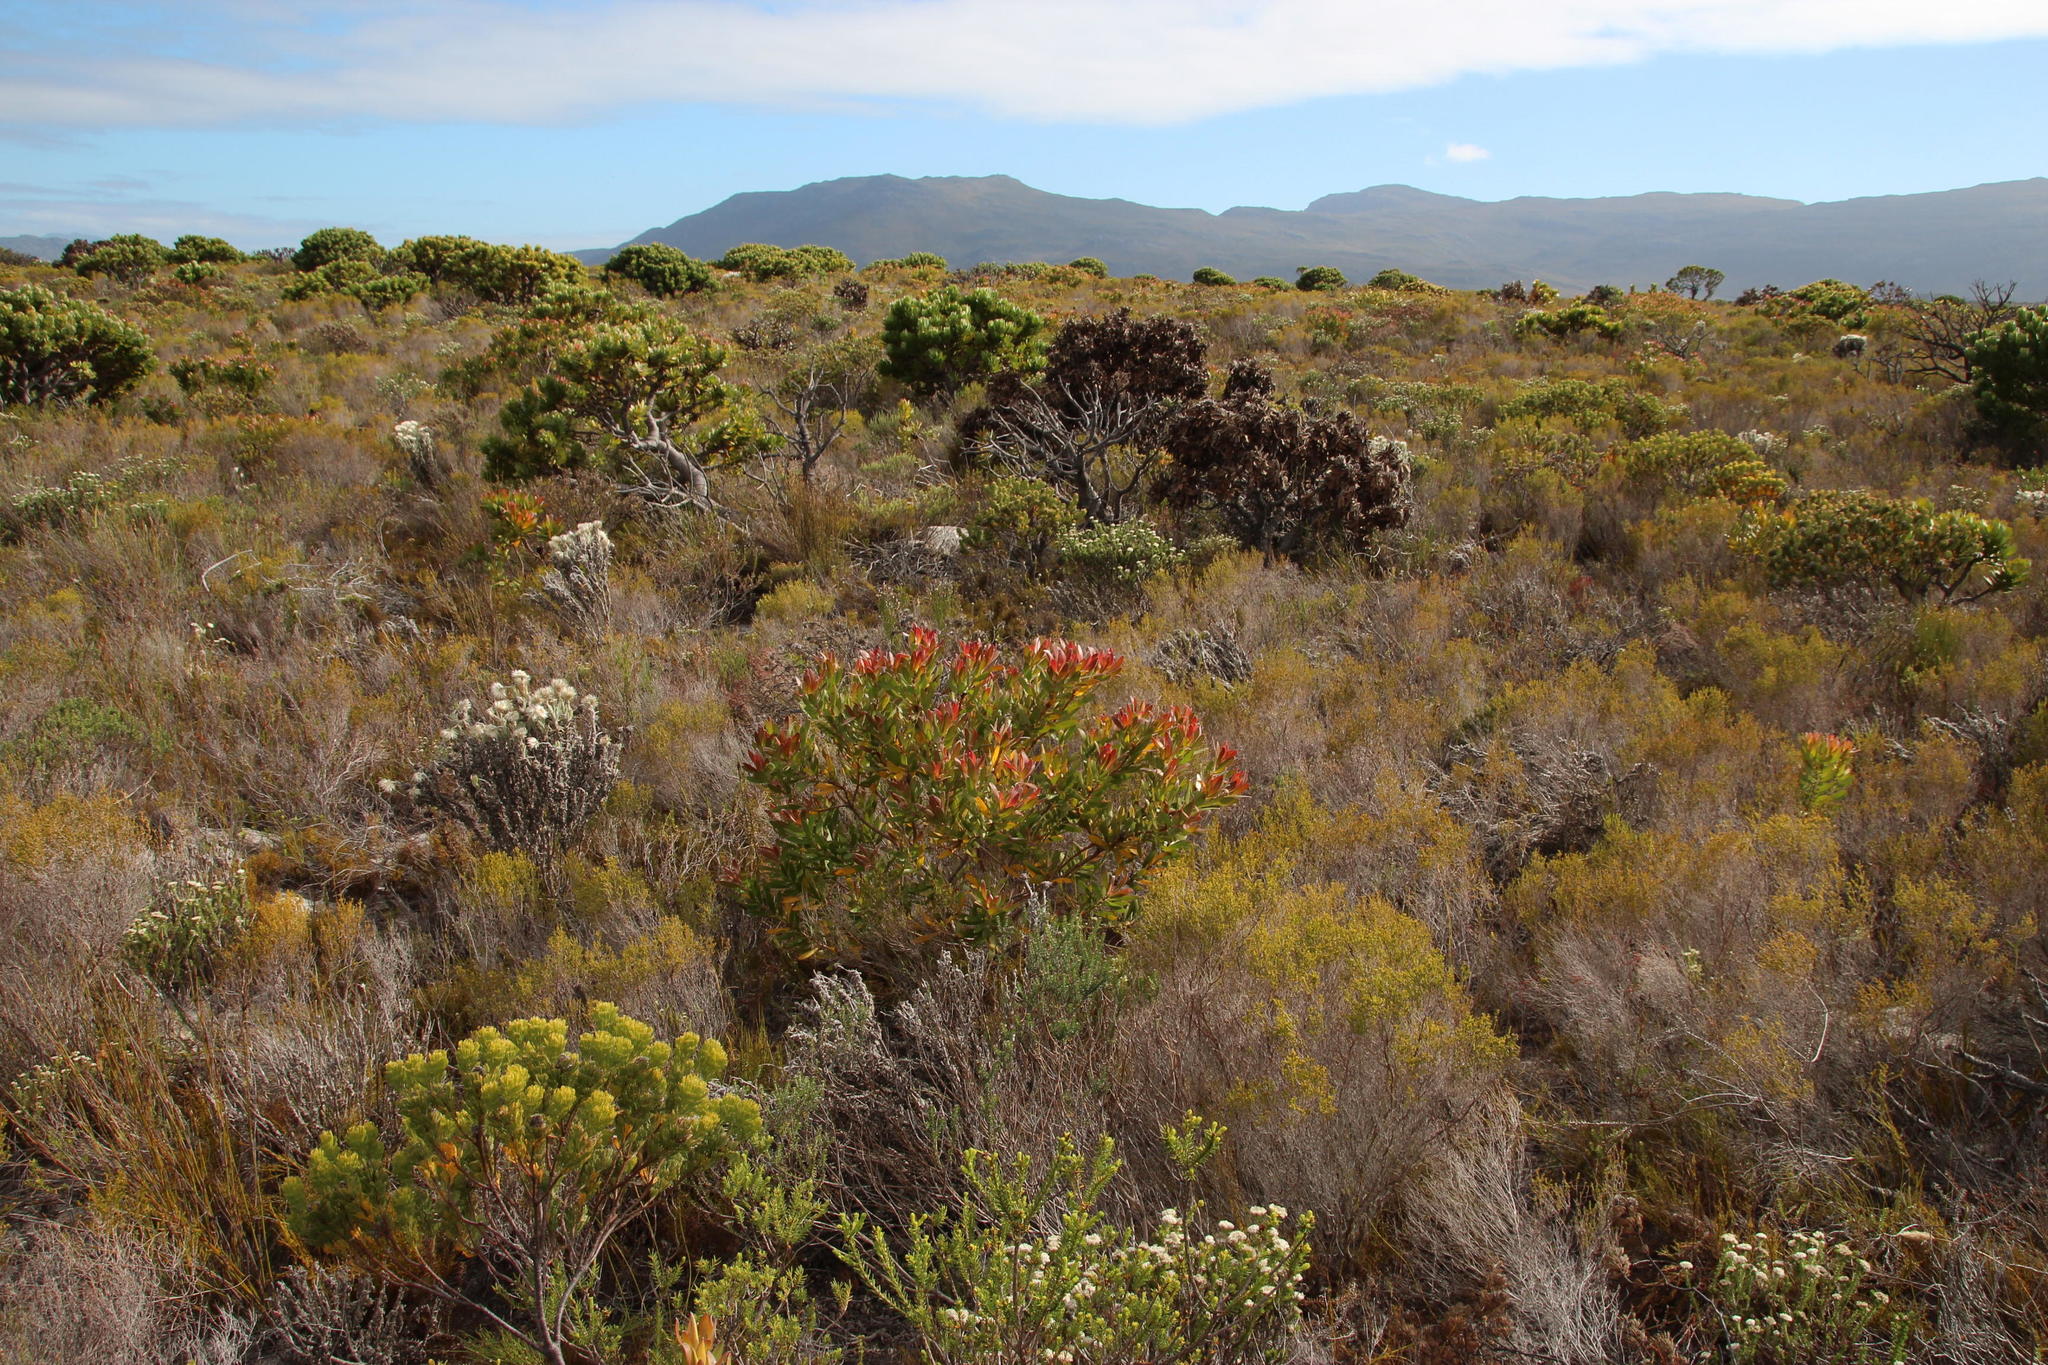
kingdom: Plantae
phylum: Tracheophyta
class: Magnoliopsida
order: Proteales
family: Proteaceae
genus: Leucadendron
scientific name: Leucadendron laureolum
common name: Golden sunshinebush
